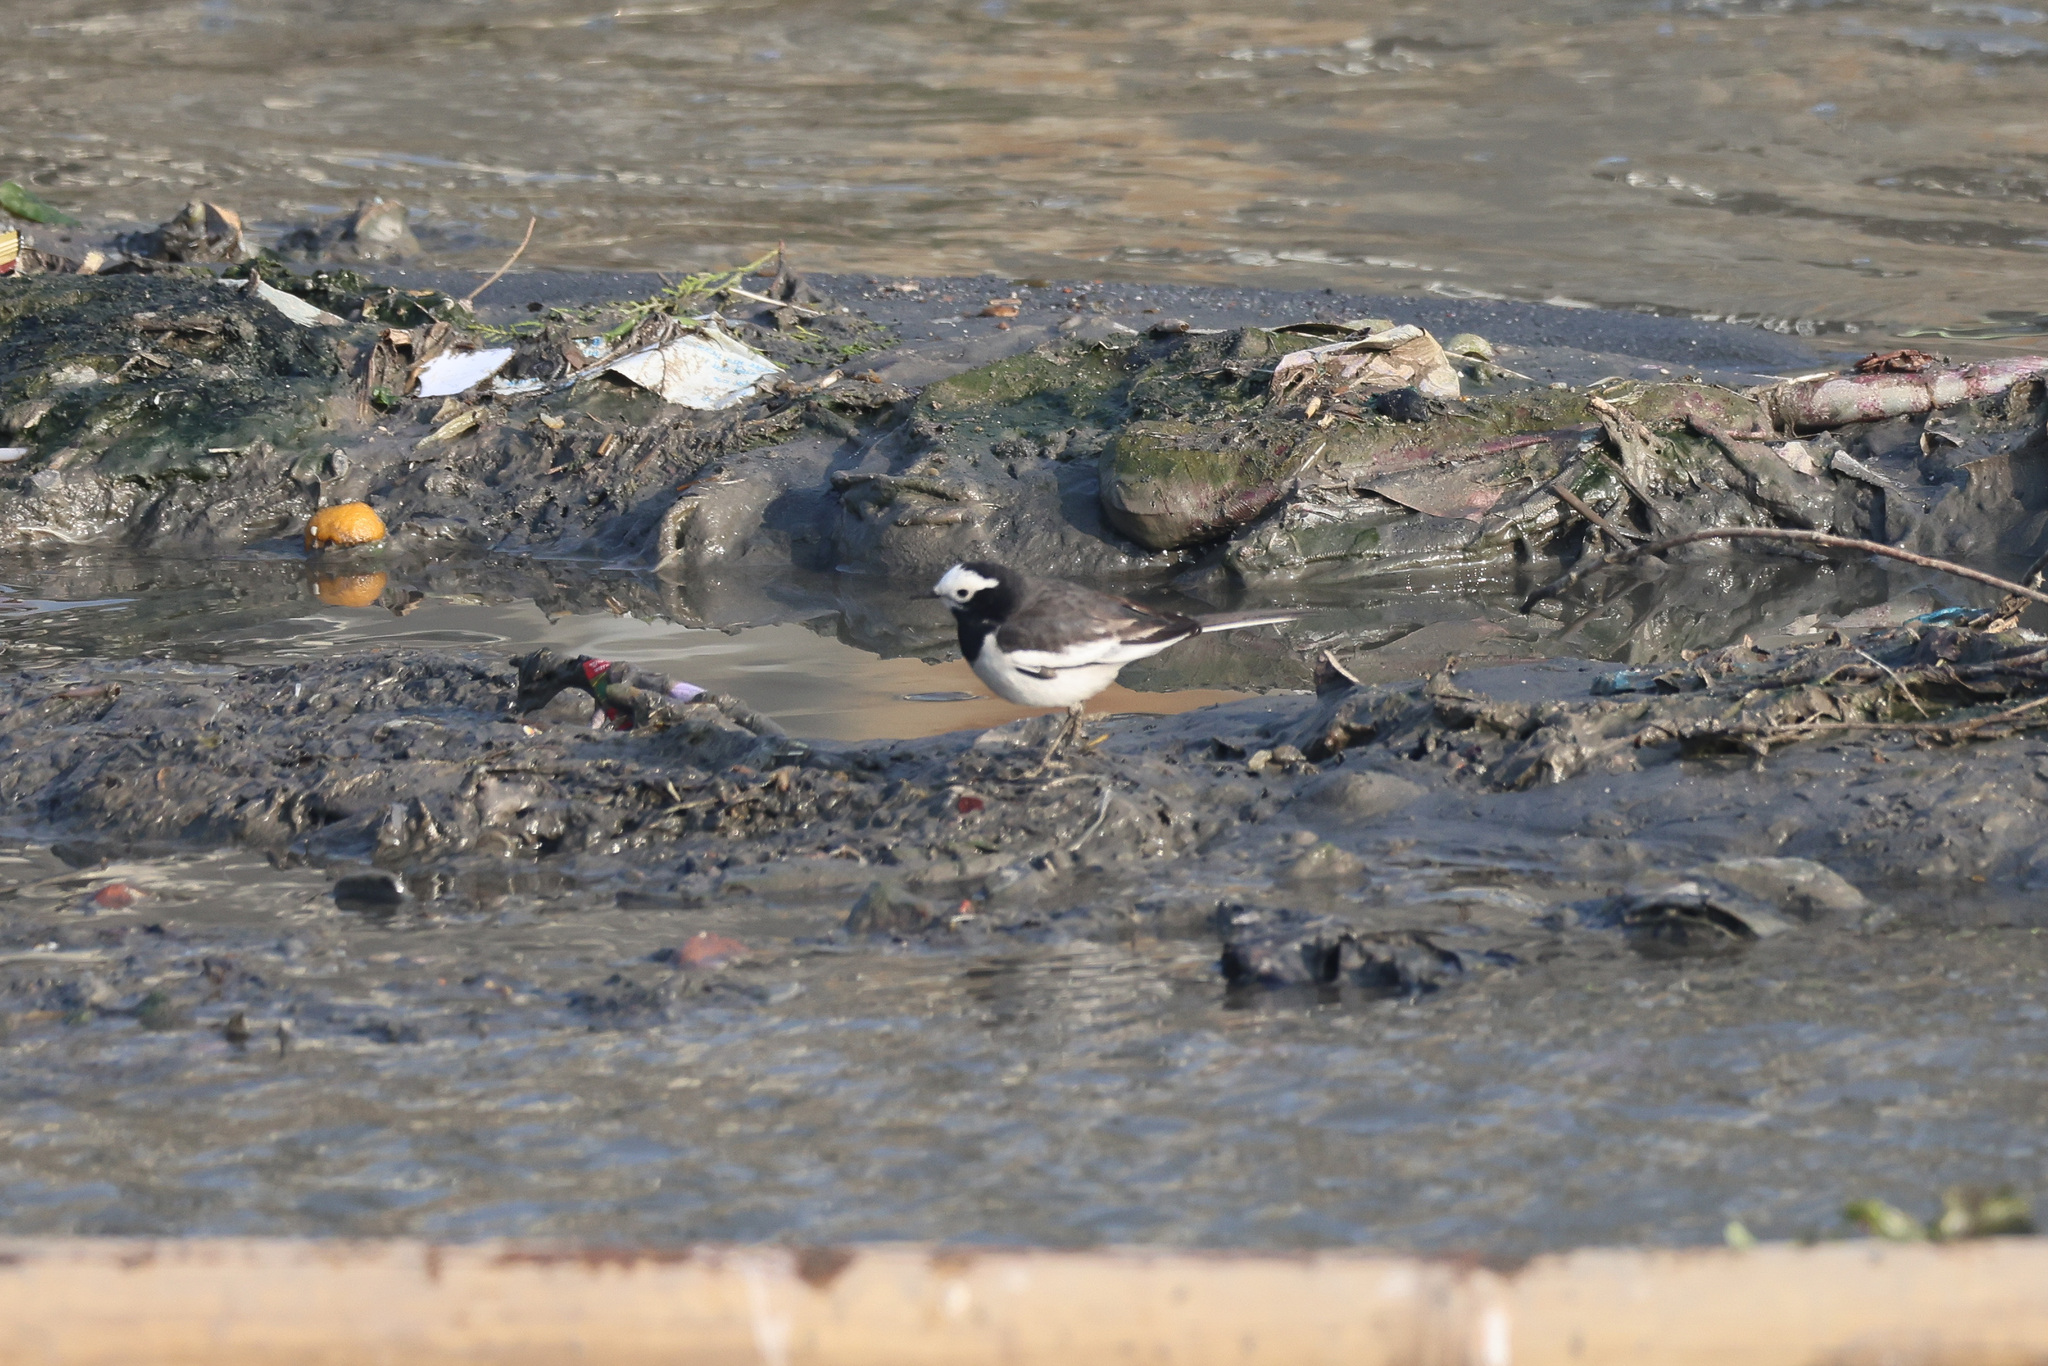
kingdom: Animalia
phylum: Chordata
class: Aves
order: Passeriformes
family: Motacillidae
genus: Motacilla
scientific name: Motacilla alba
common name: White wagtail
